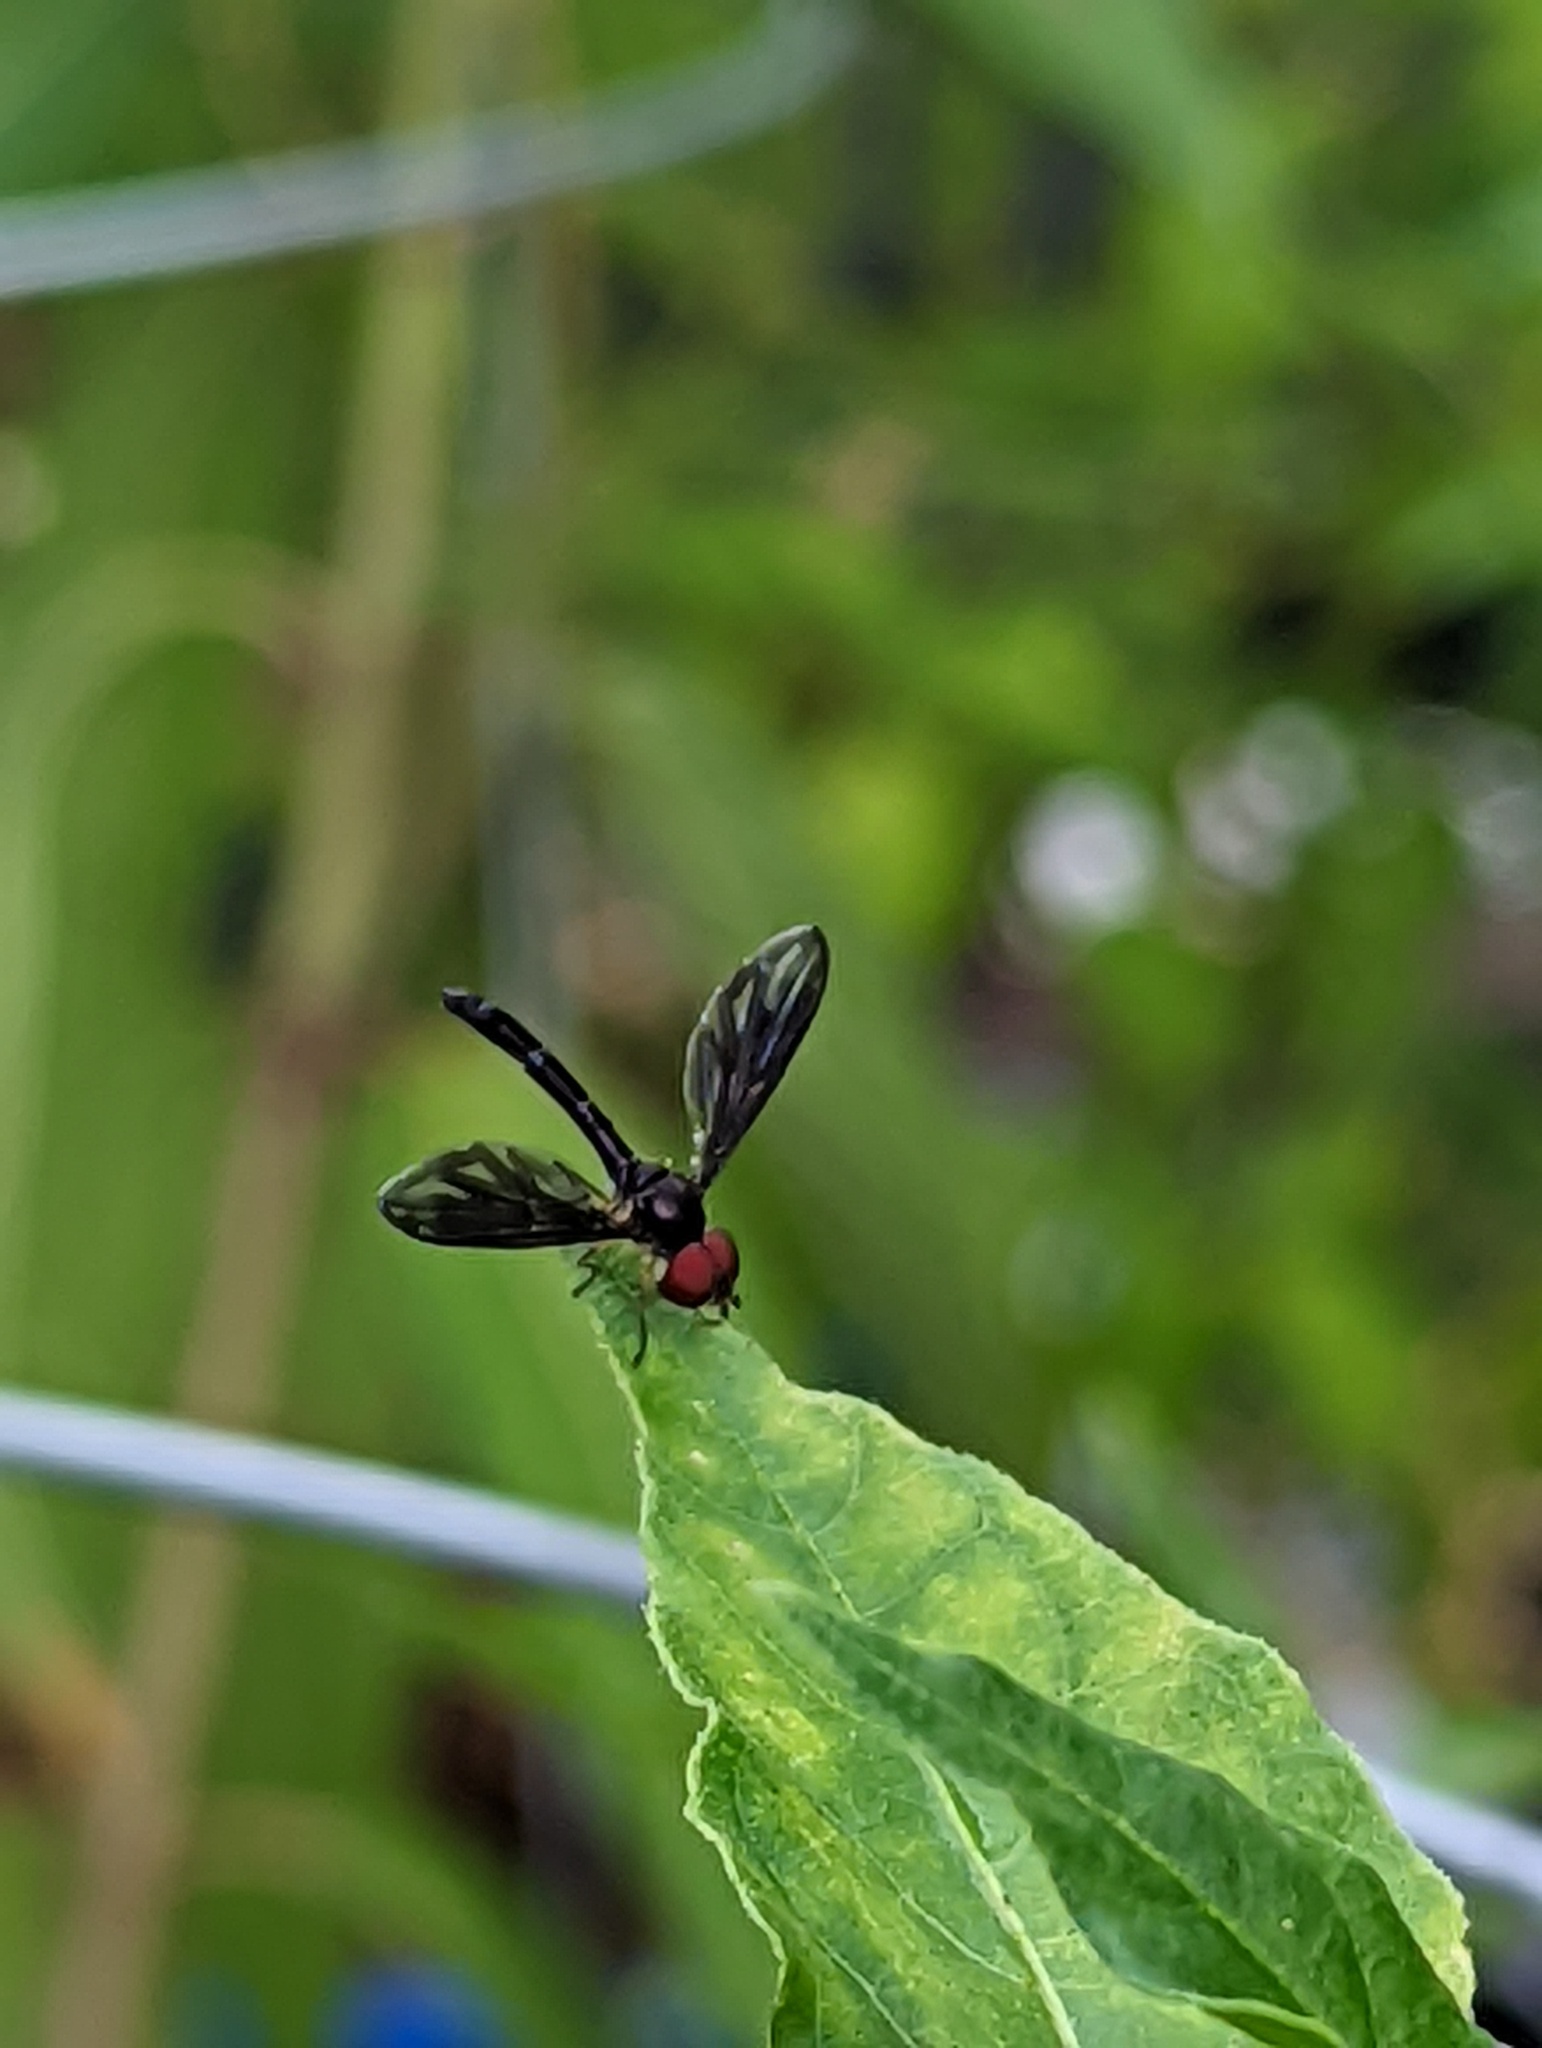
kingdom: Animalia
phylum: Arthropoda
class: Insecta
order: Diptera
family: Syrphidae
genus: Ocyptamus
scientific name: Ocyptamus fuscipennis
